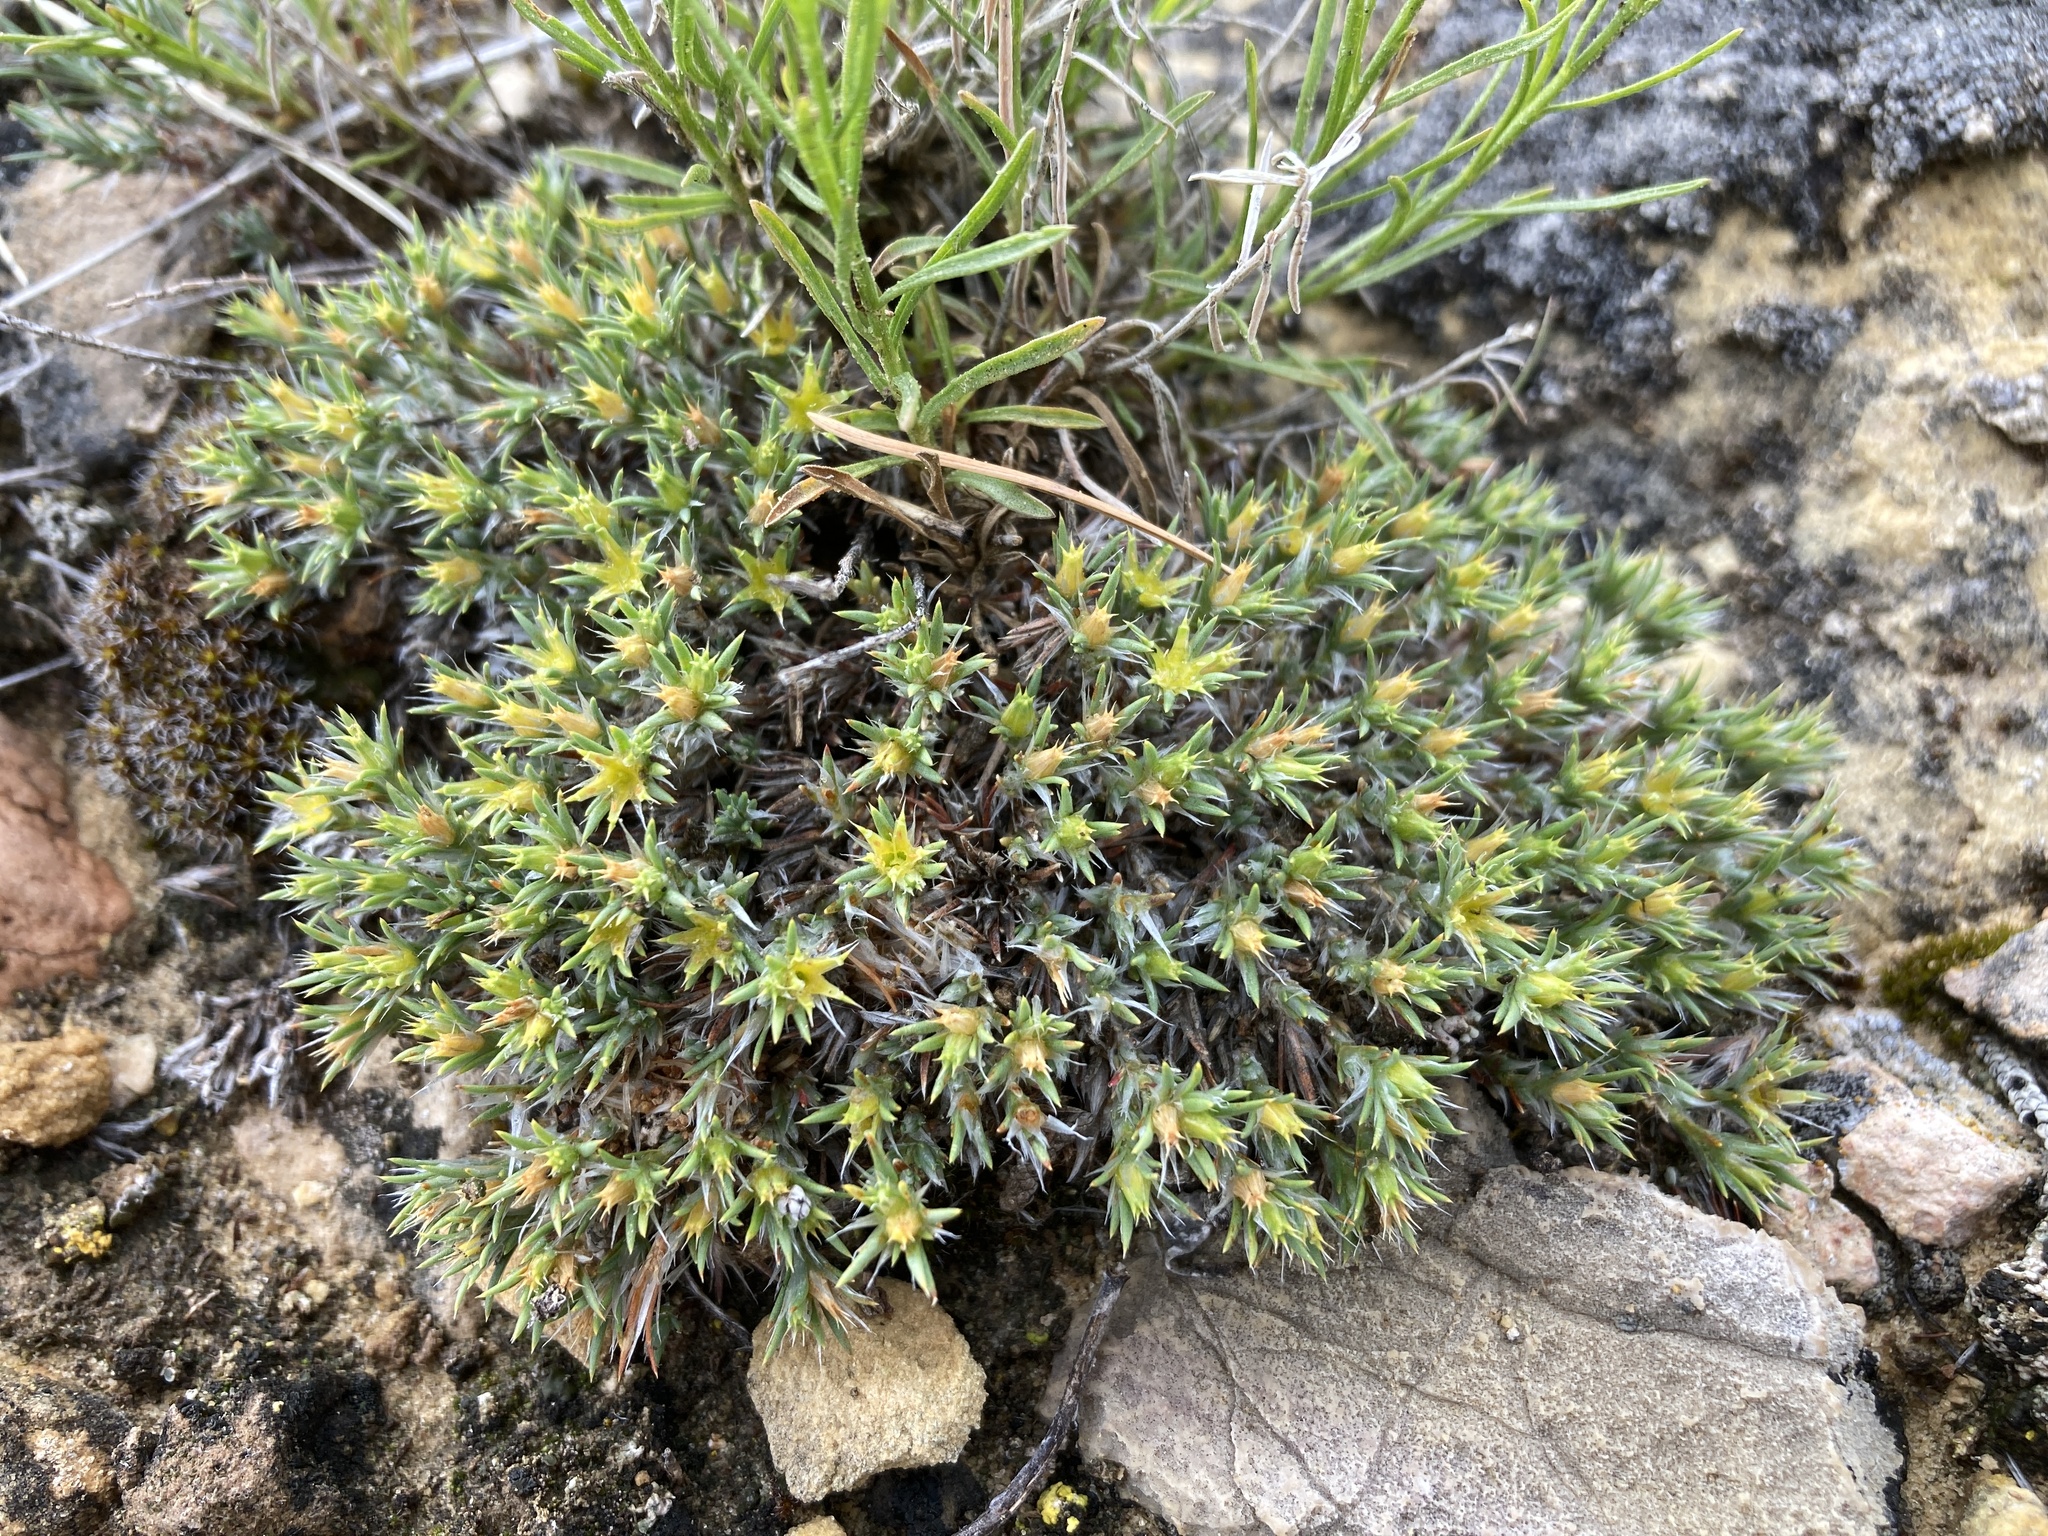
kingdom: Plantae
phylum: Tracheophyta
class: Magnoliopsida
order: Caryophyllales
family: Caryophyllaceae
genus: Paronychia
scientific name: Paronychia sessiliflora
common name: Creeping nailwort
